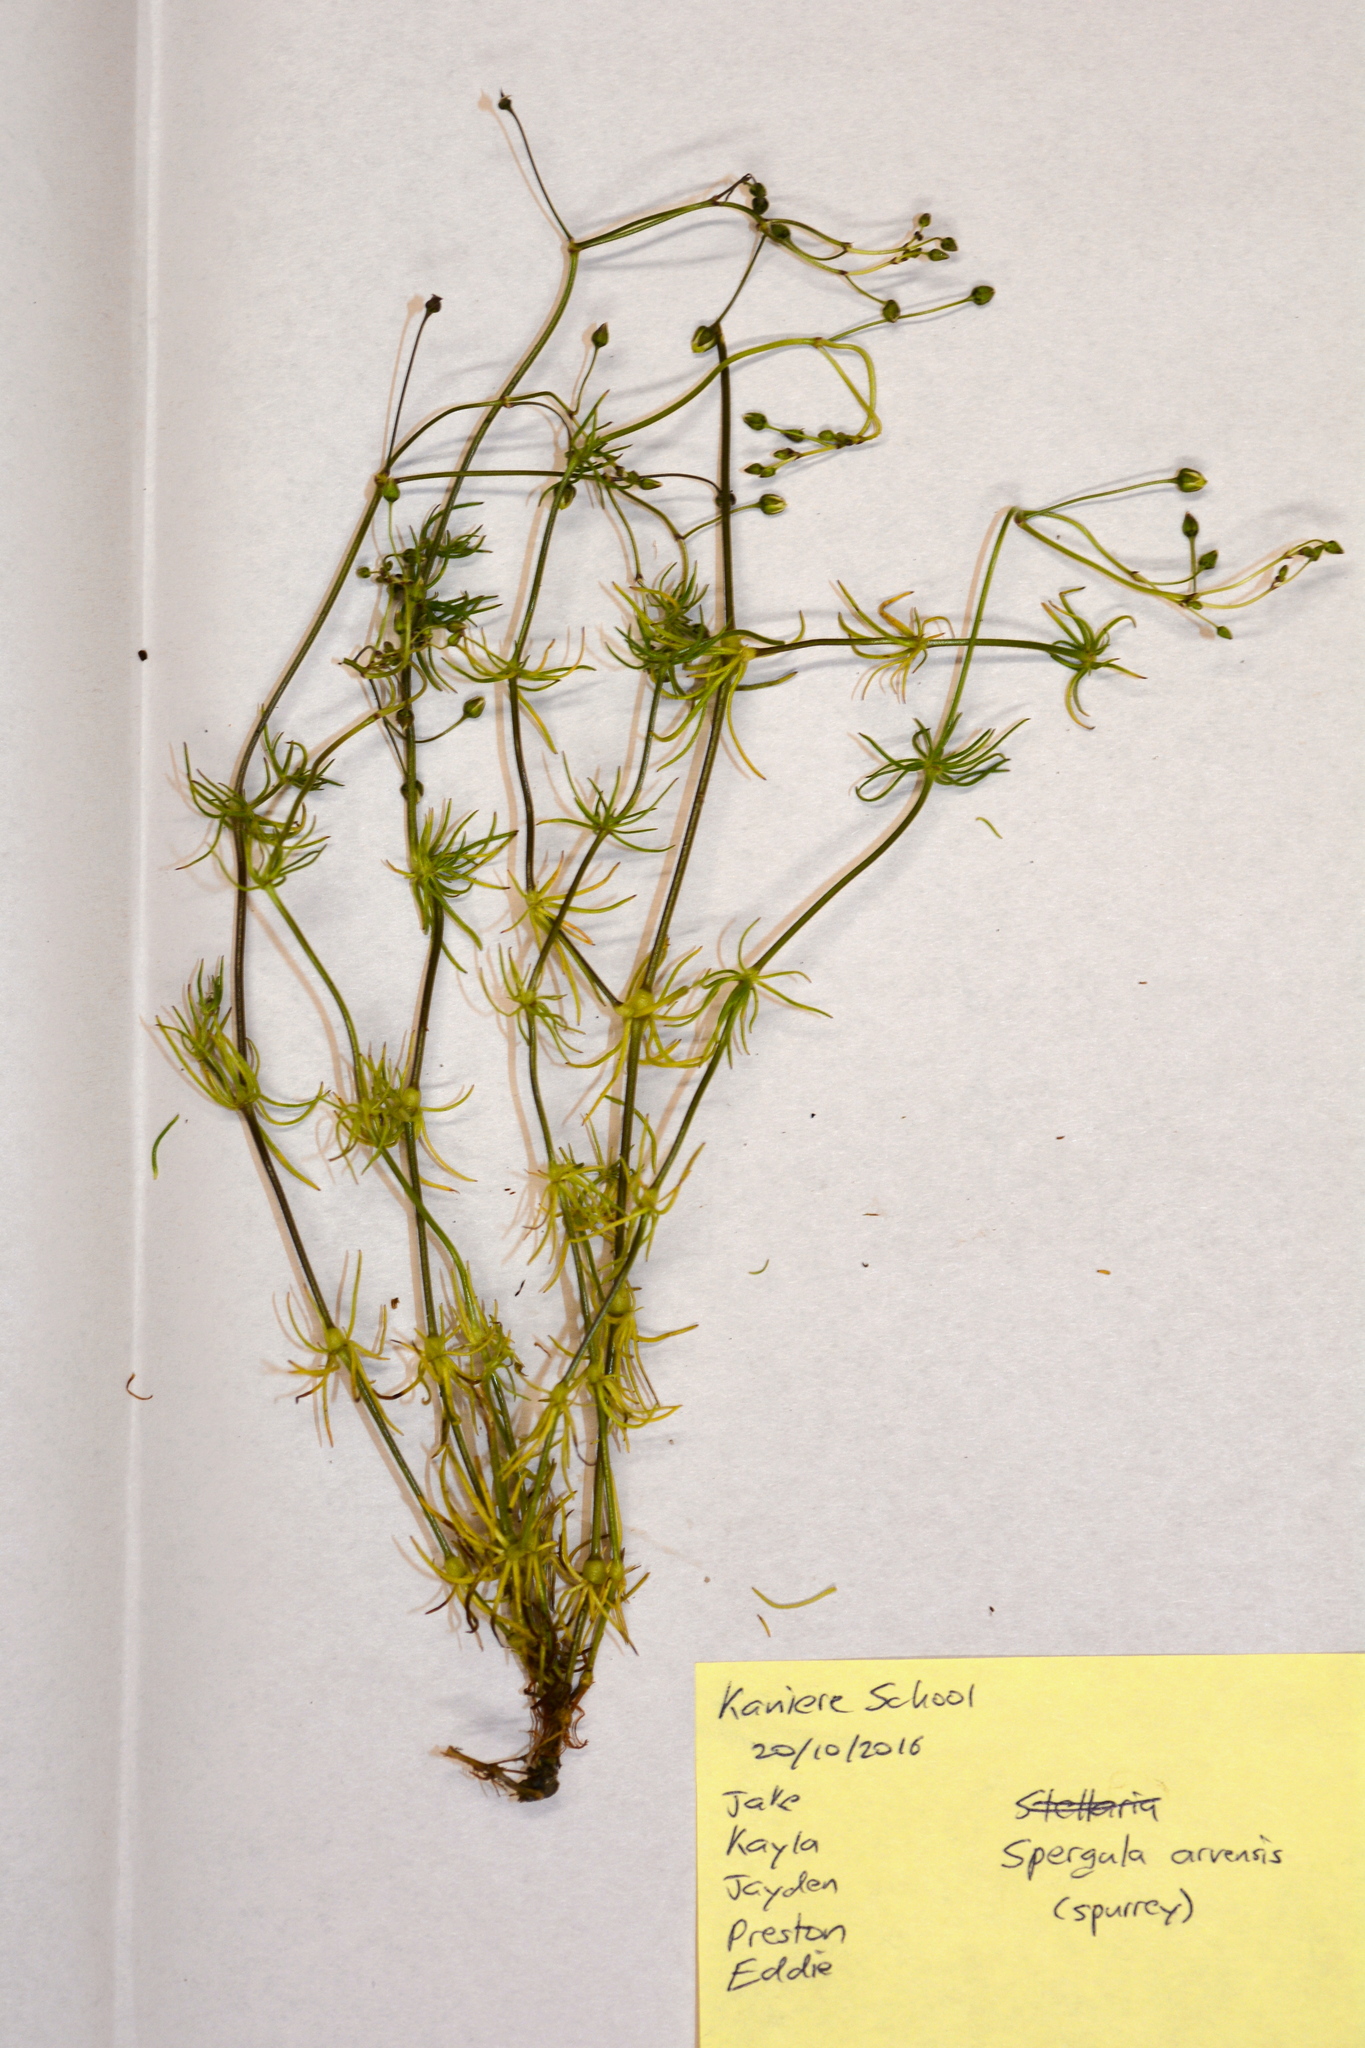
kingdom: Plantae
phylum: Tracheophyta
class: Magnoliopsida
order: Caryophyllales
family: Caryophyllaceae
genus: Spergula
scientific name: Spergula arvensis
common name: Corn spurrey
